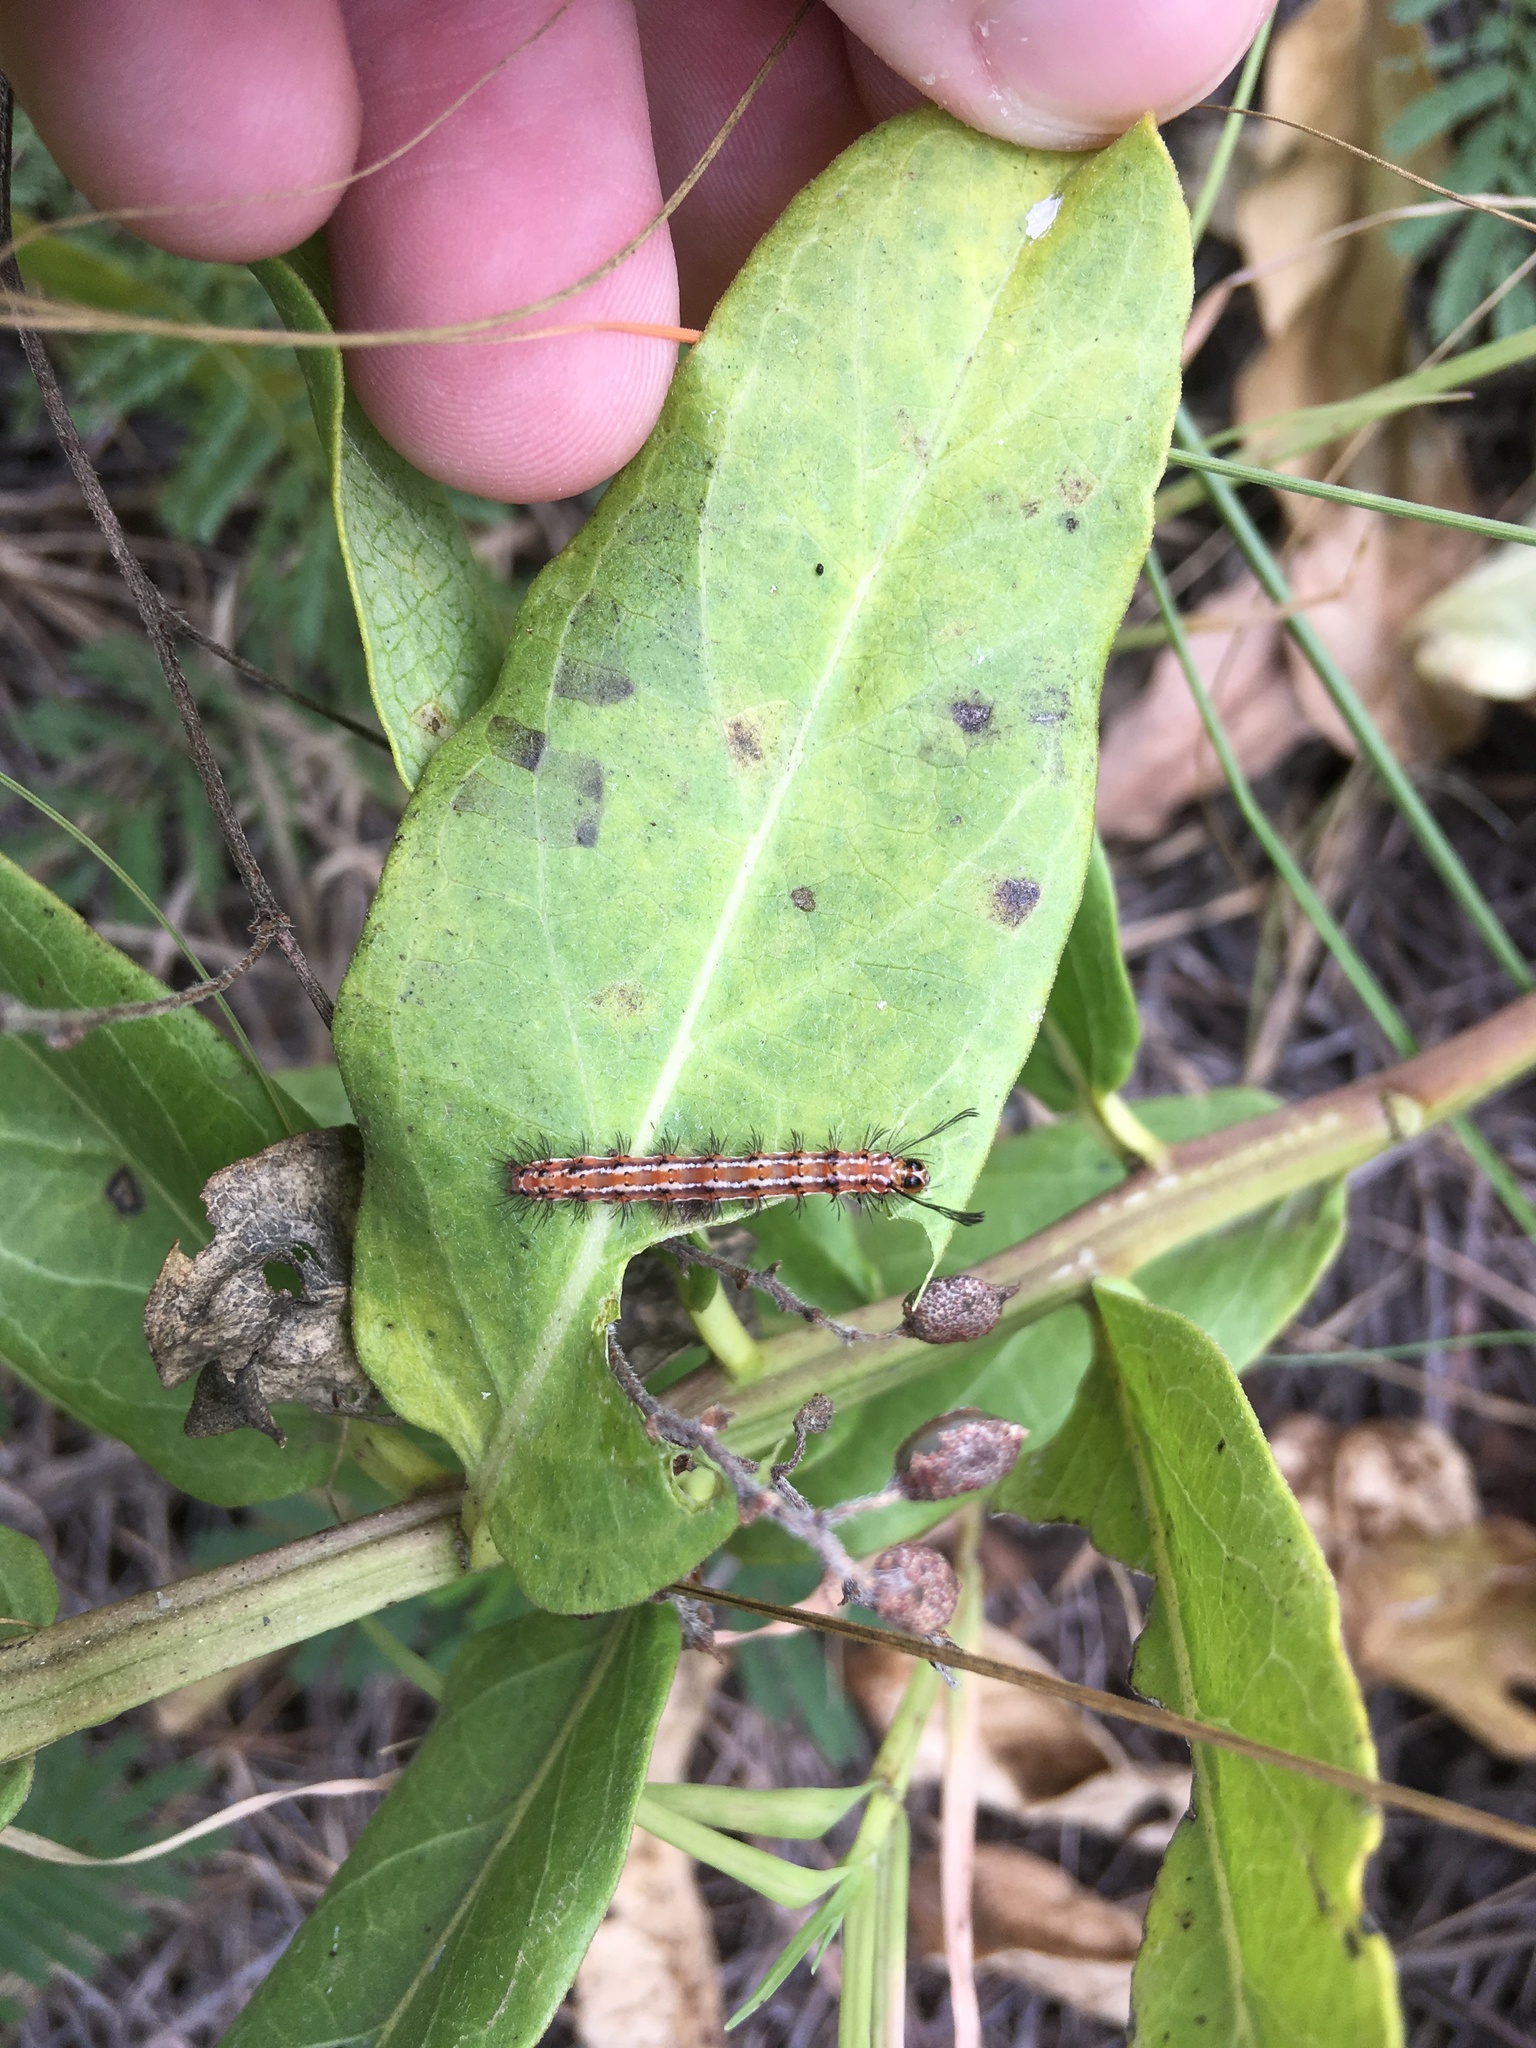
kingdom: Animalia
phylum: Arthropoda
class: Insecta
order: Lepidoptera
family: Erebidae
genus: Pagara
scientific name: Pagara simplex
